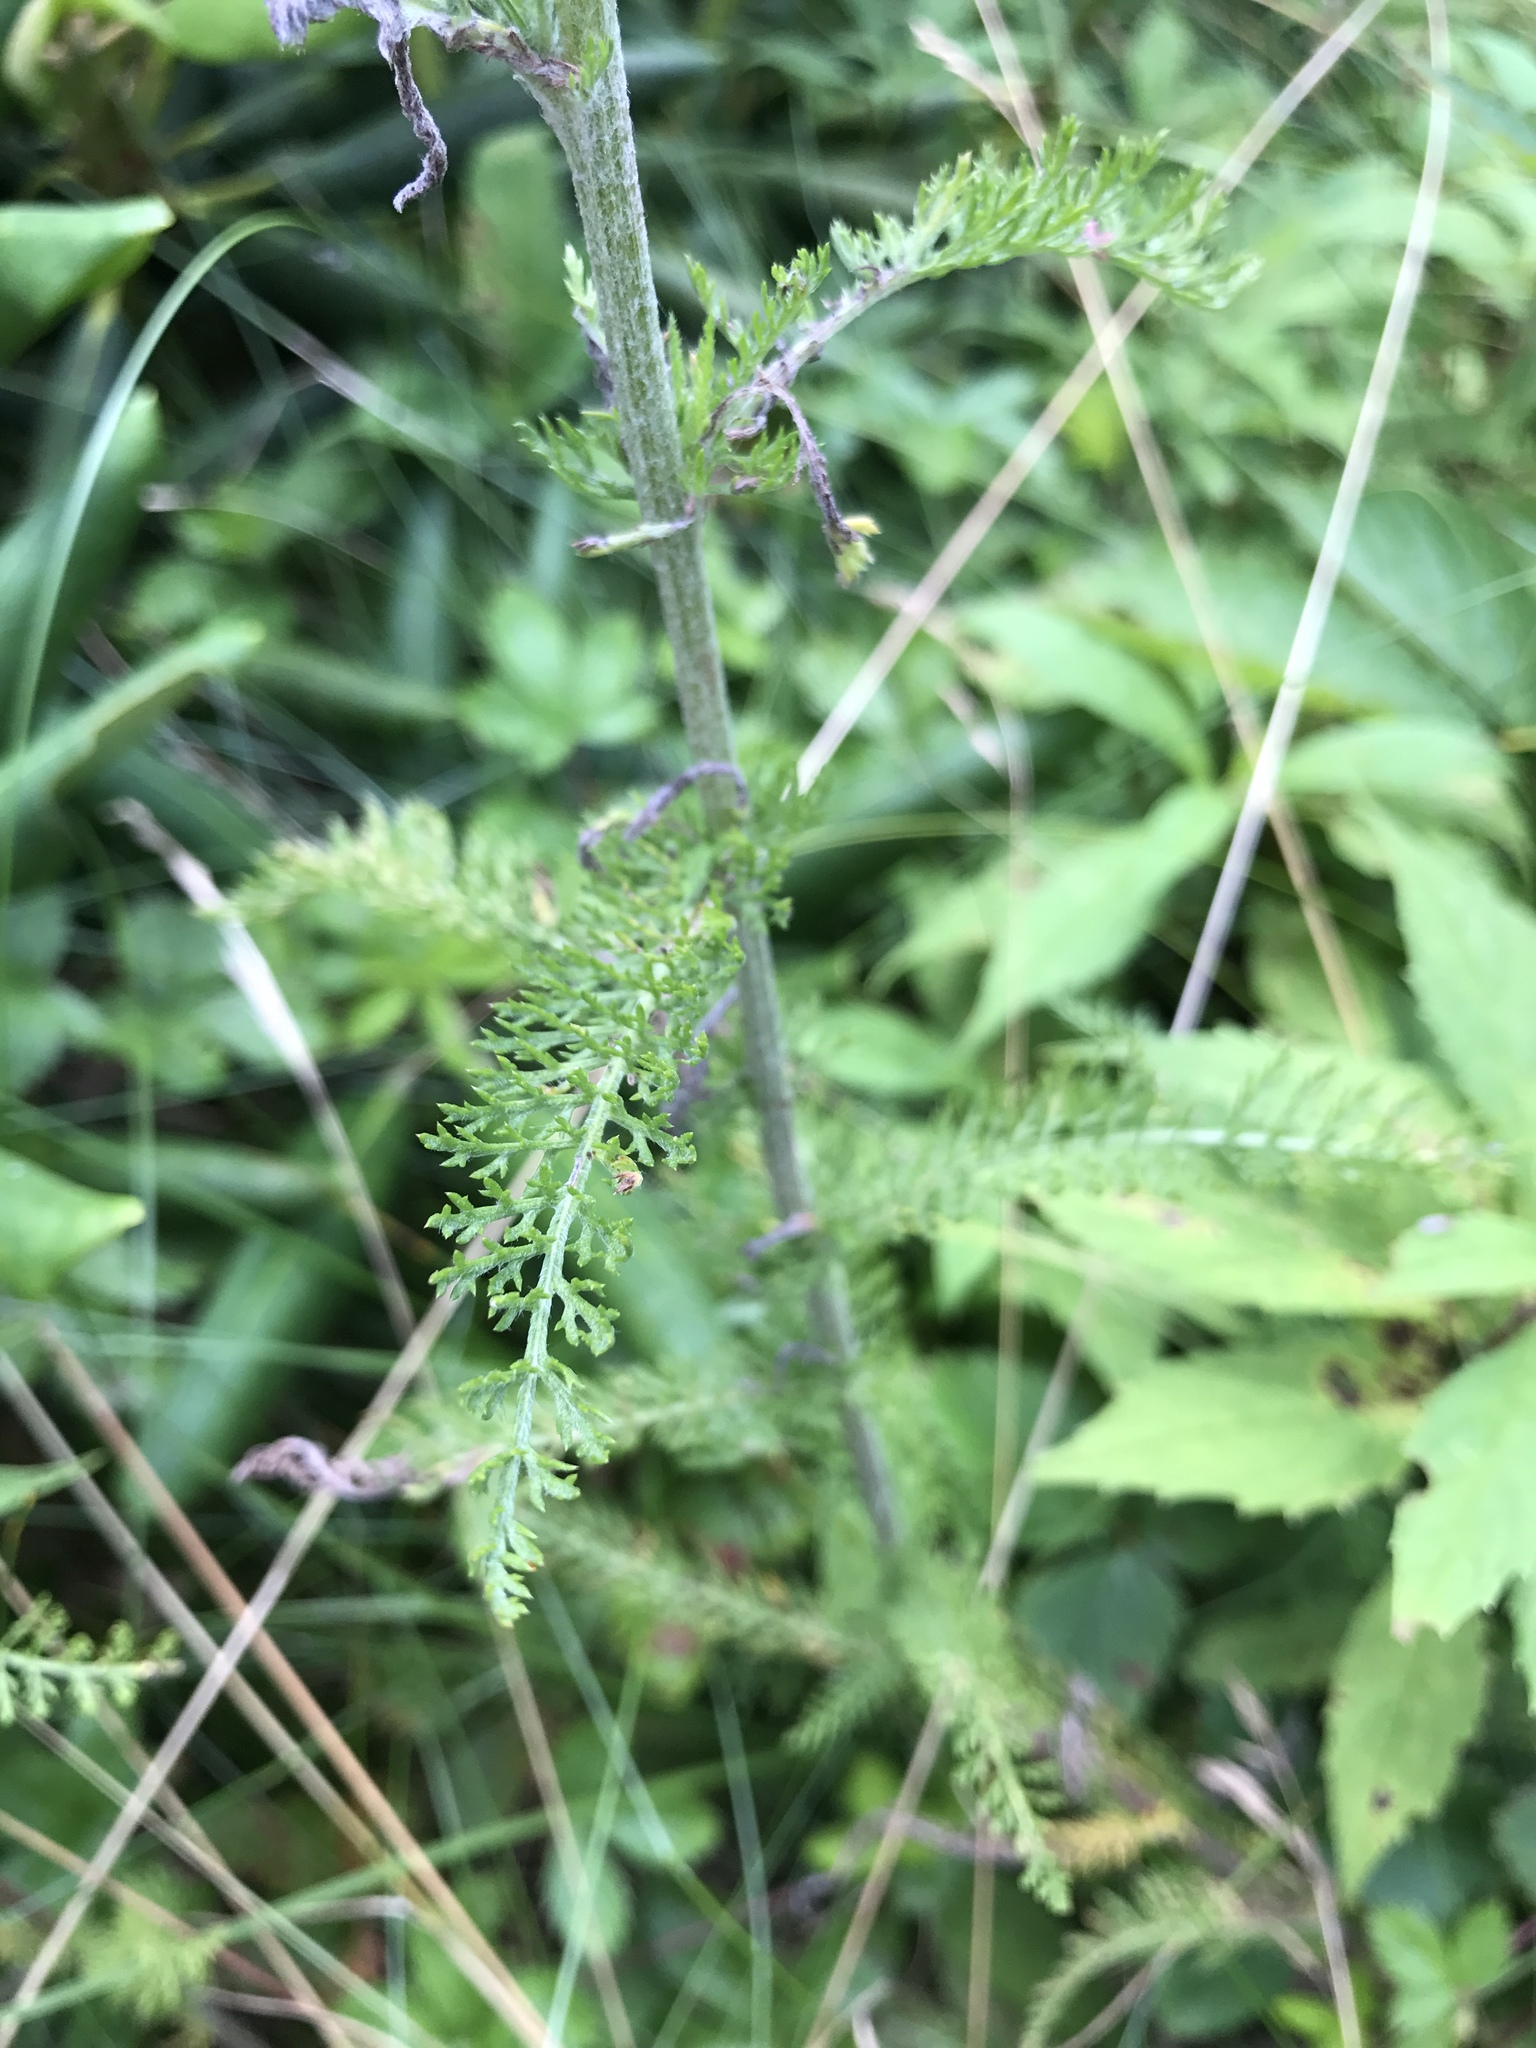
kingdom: Plantae
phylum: Tracheophyta
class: Magnoliopsida
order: Asterales
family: Asteraceae
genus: Achillea
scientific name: Achillea millefolium
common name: Yarrow
